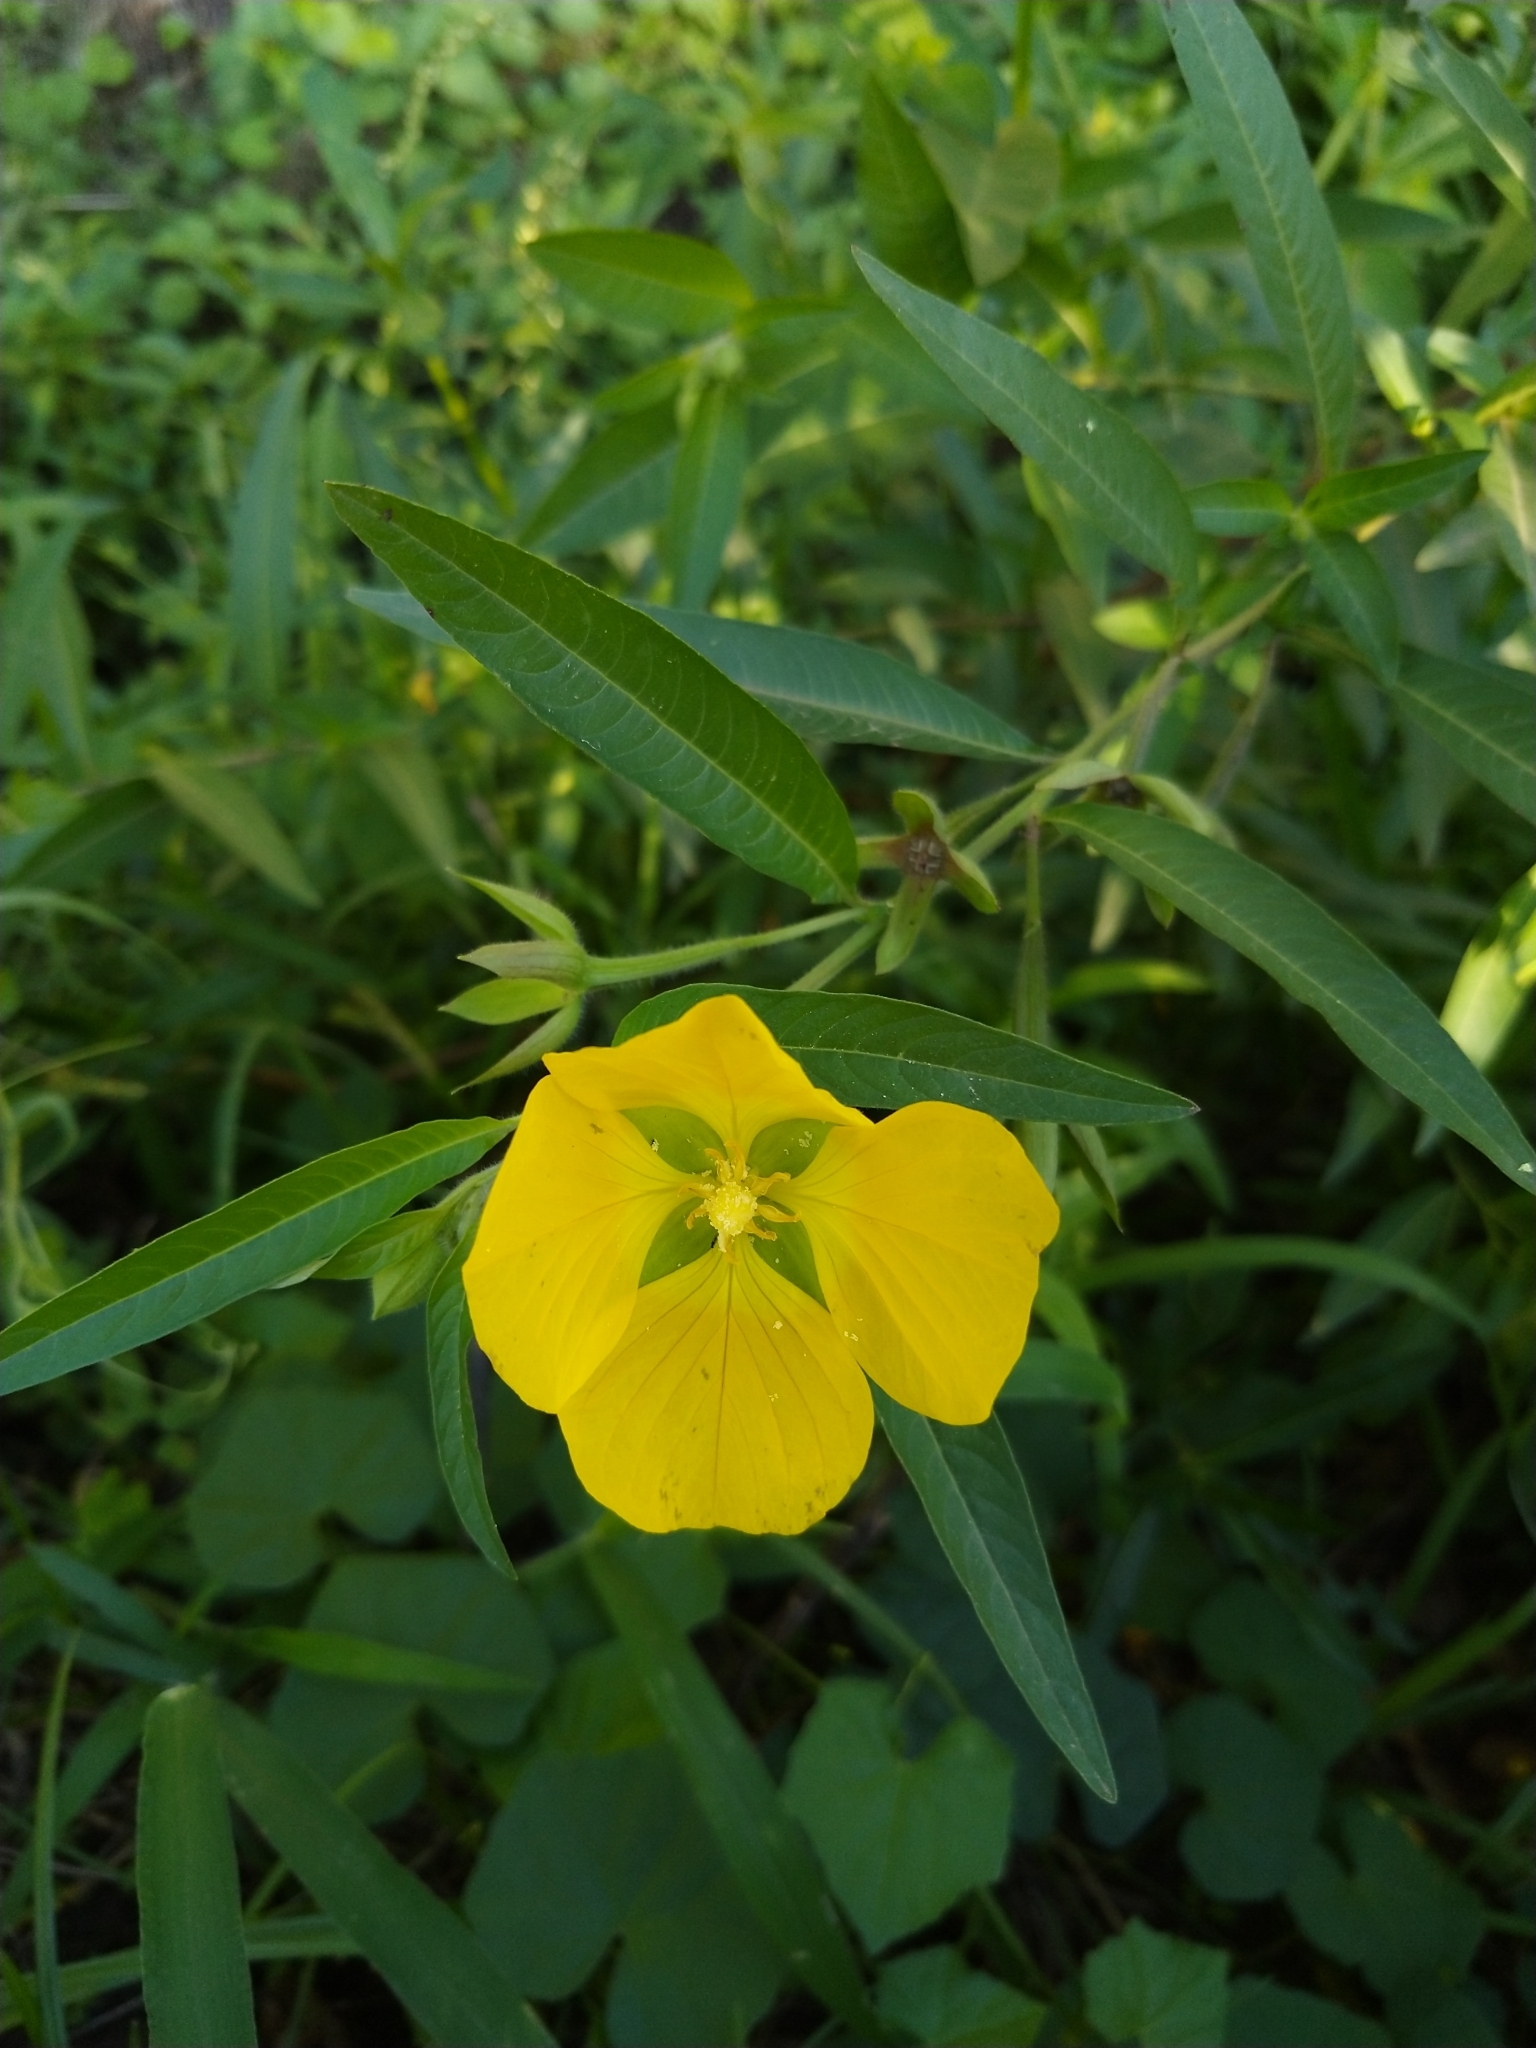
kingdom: Plantae
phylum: Tracheophyta
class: Magnoliopsida
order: Myrtales
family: Onagraceae
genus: Ludwigia
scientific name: Ludwigia bonariensis
